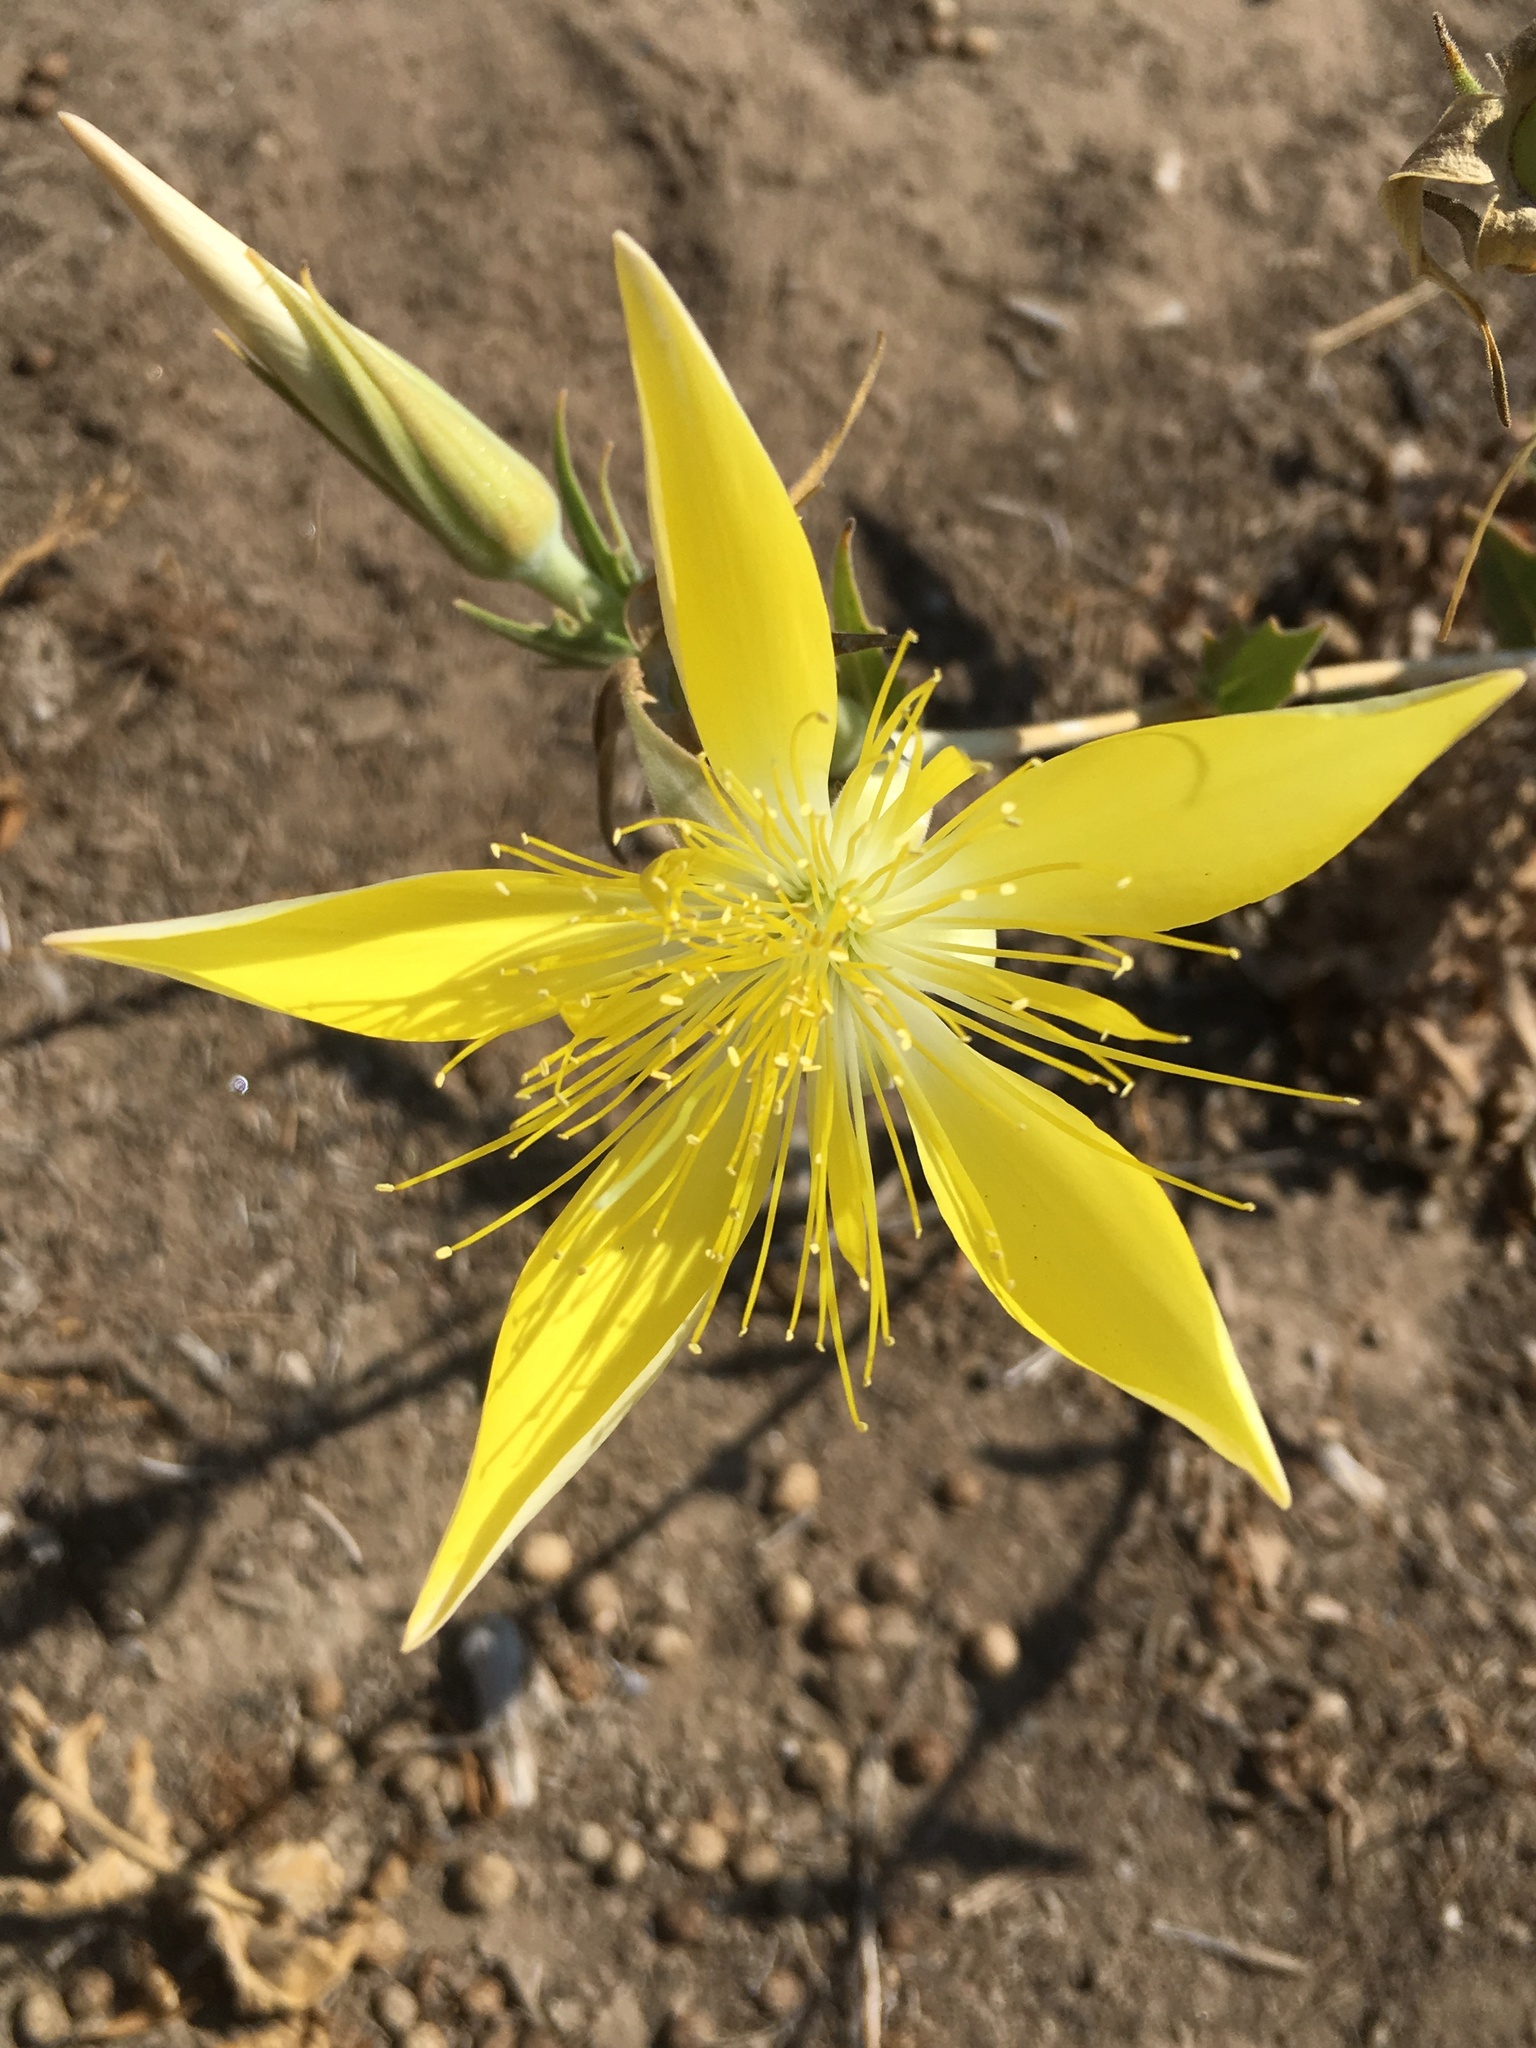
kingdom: Plantae
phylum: Tracheophyta
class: Magnoliopsida
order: Cornales
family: Loasaceae
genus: Mentzelia
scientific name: Mentzelia laevicaulis
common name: Smooth-stem blazingstar
